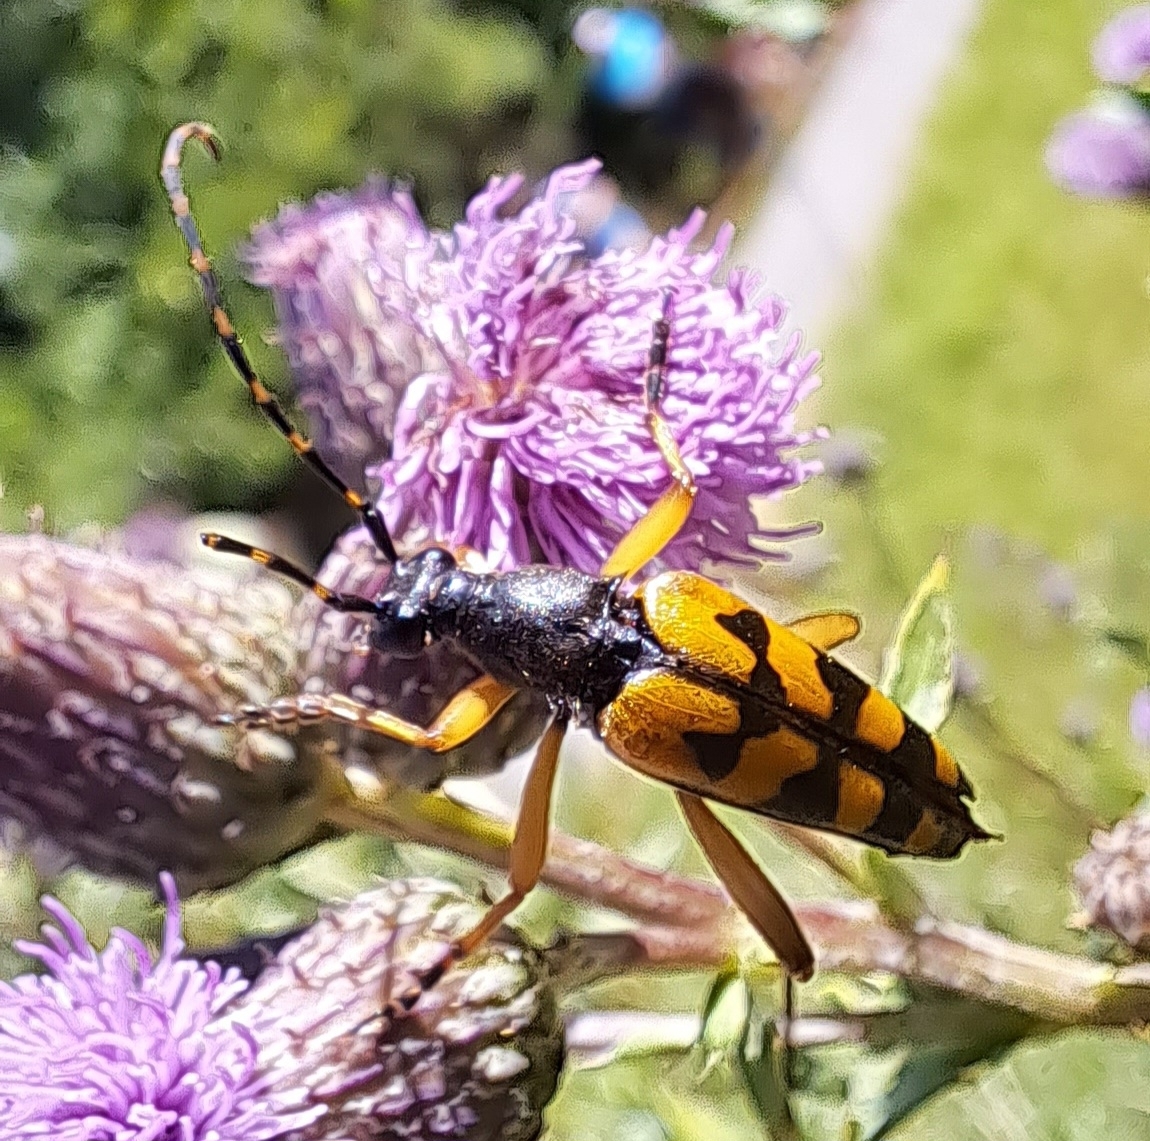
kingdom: Animalia
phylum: Arthropoda
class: Insecta
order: Coleoptera
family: Cerambycidae
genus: Rutpela
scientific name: Rutpela maculata
